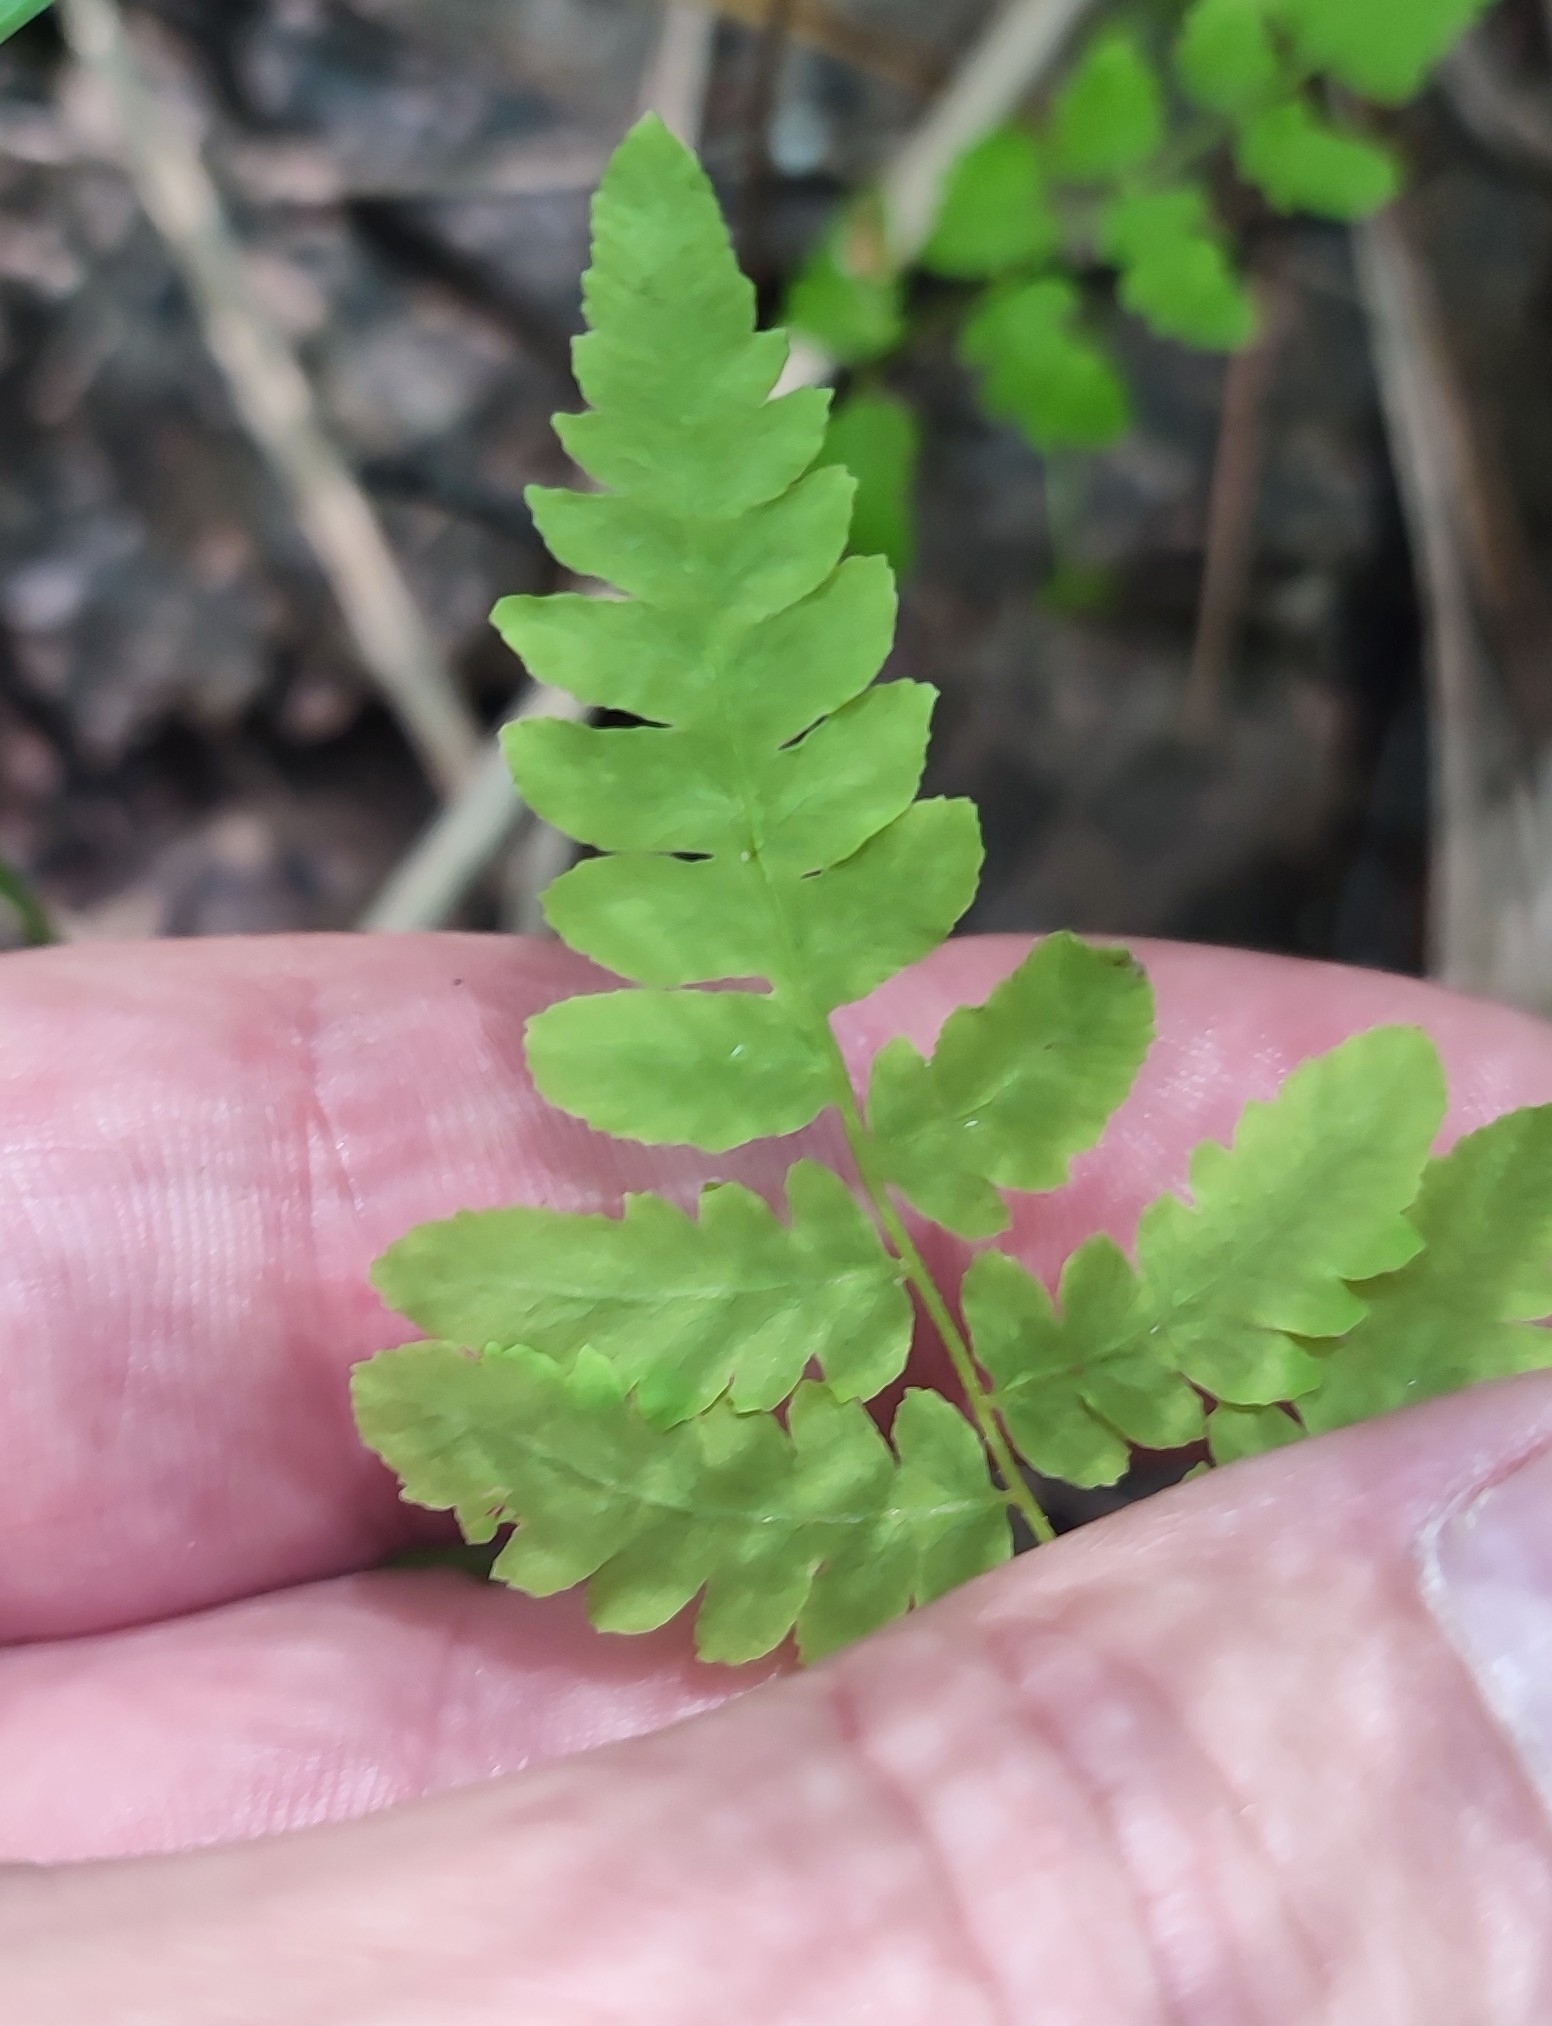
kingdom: Plantae
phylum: Tracheophyta
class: Polypodiopsida
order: Polypodiales
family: Thelypteridaceae
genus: Thelypteris
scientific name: Thelypteris palustris
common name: Marsh fern
